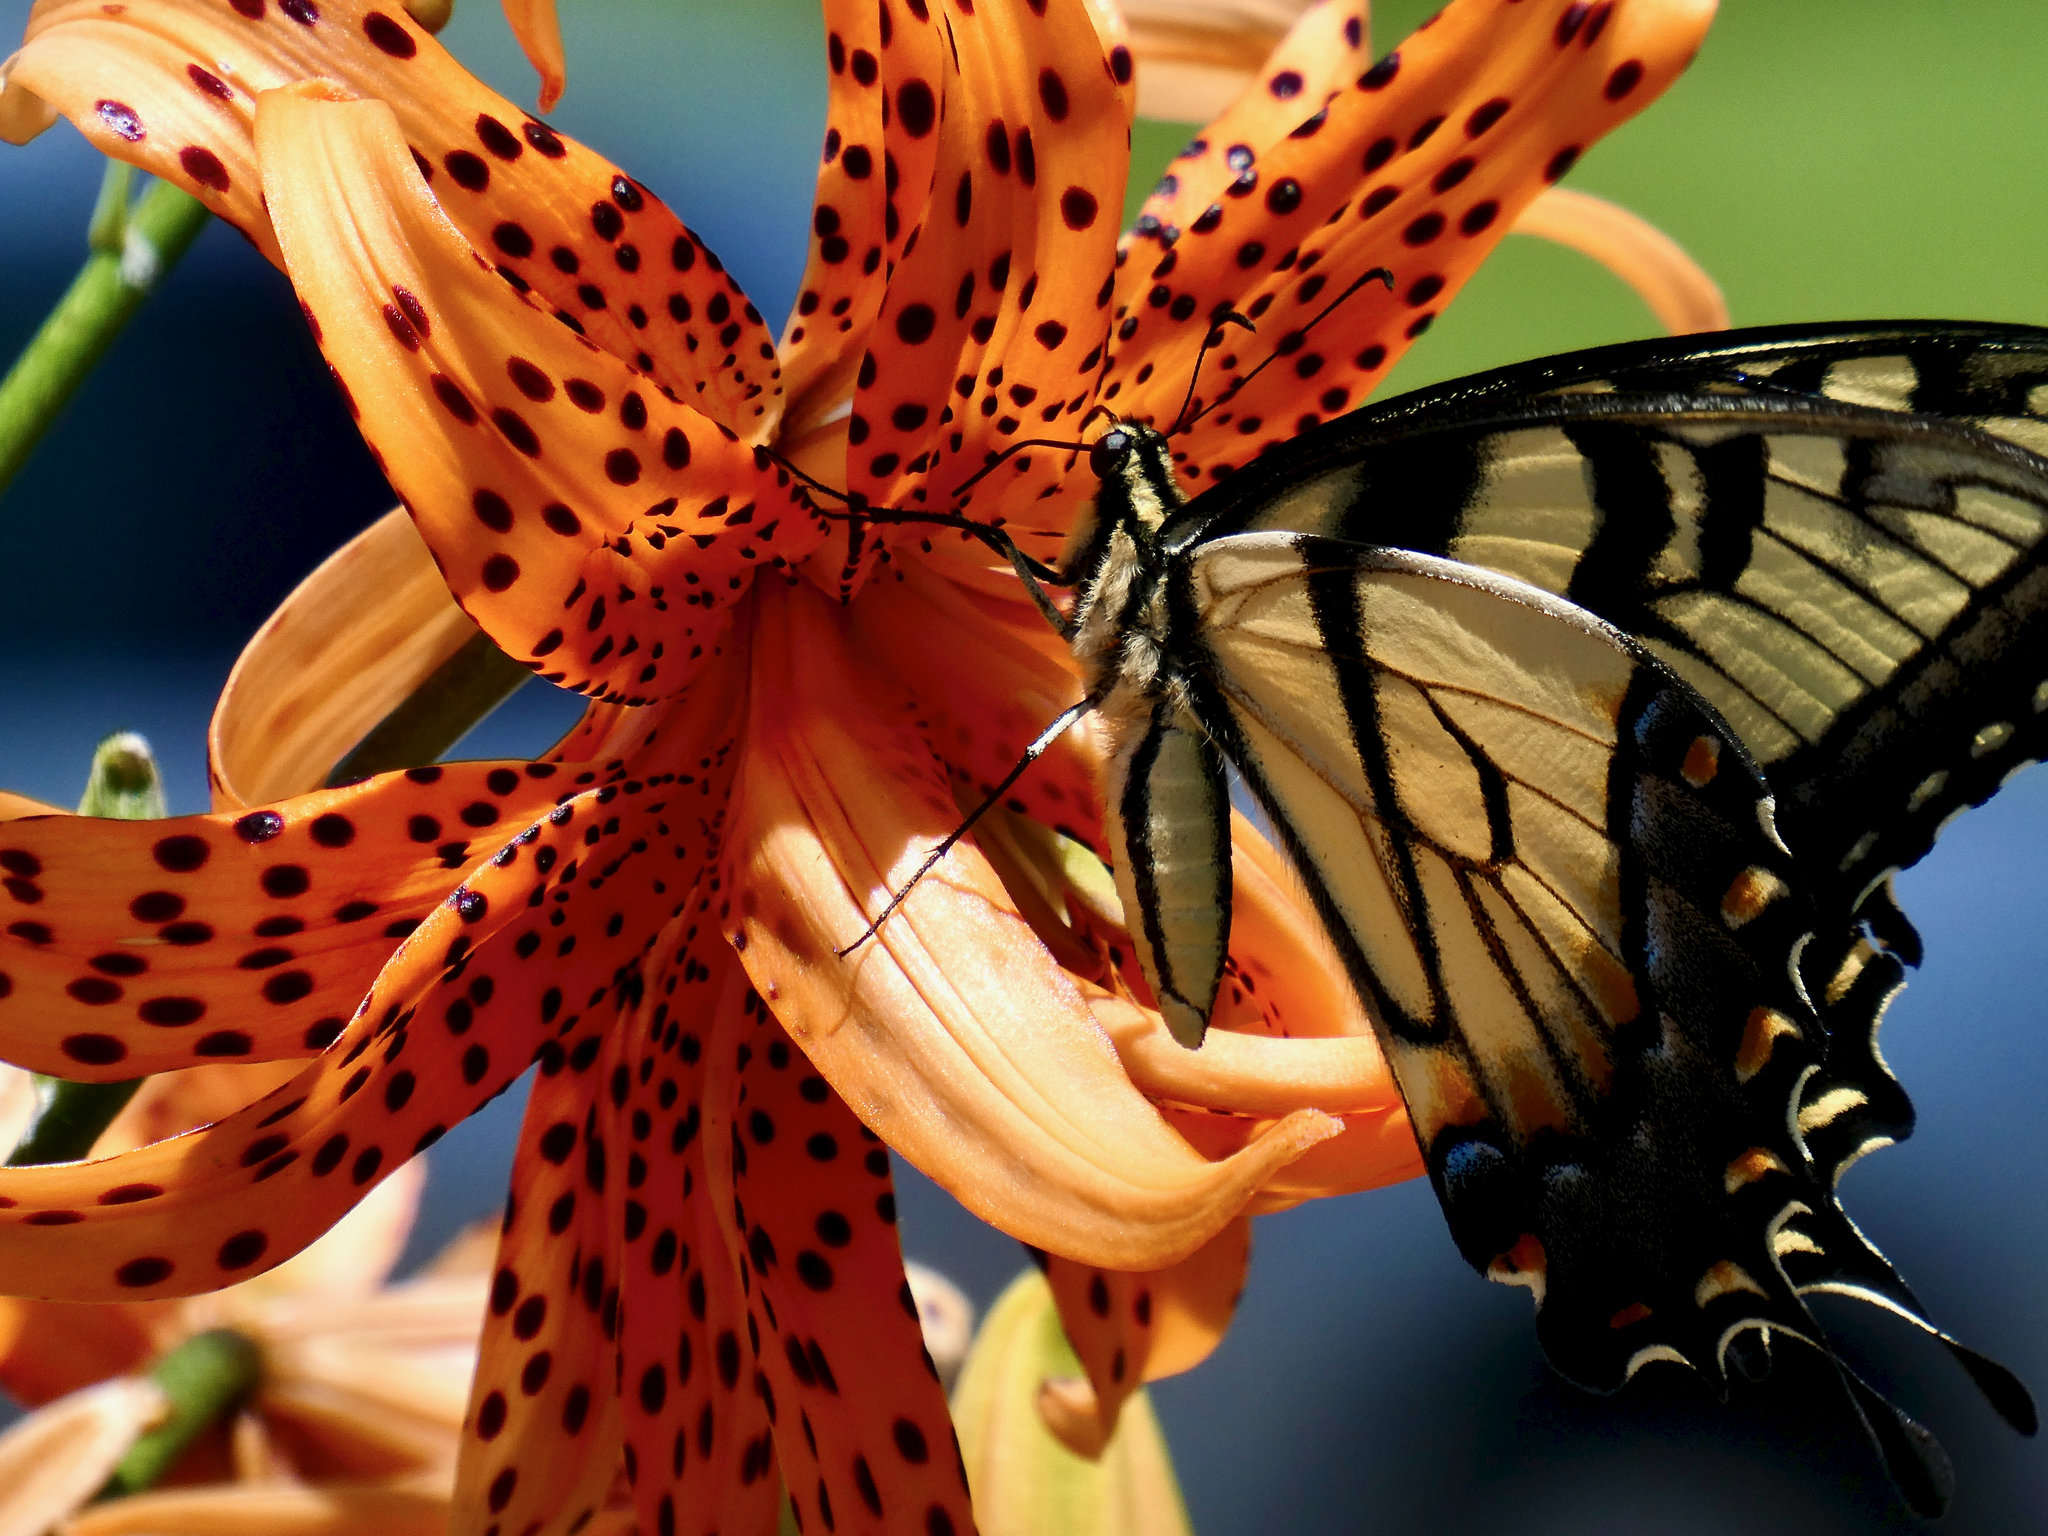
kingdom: Animalia
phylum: Arthropoda
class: Insecta
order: Lepidoptera
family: Papilionidae
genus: Papilio
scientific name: Papilio glaucus
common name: Tiger swallowtail
